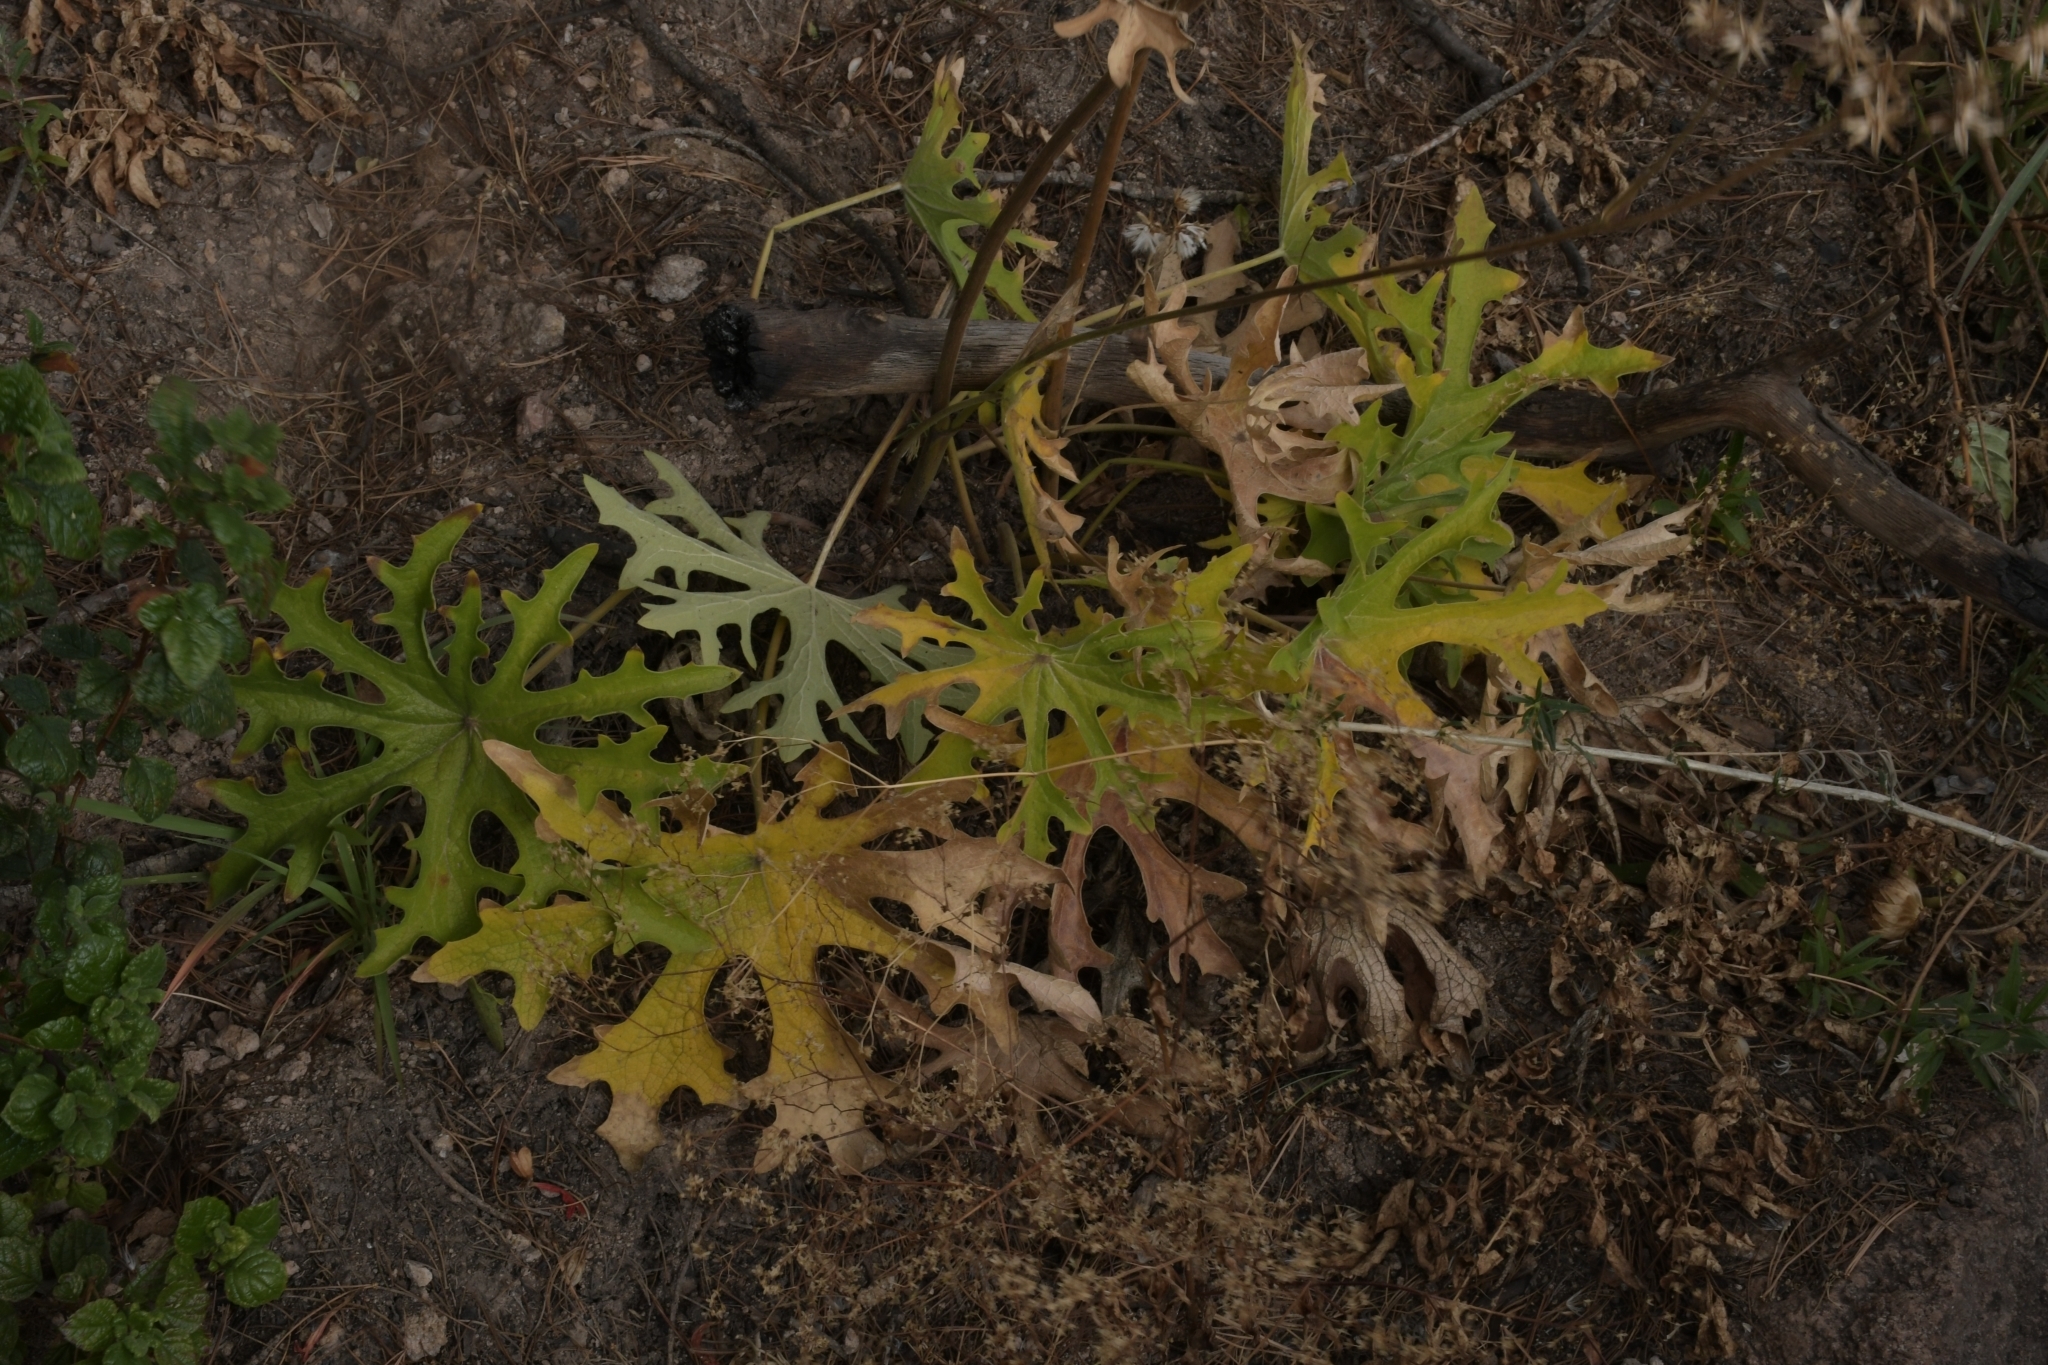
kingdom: Plantae
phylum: Tracheophyta
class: Magnoliopsida
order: Asterales
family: Asteraceae
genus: Psacalium
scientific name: Psacalium radulifolium
